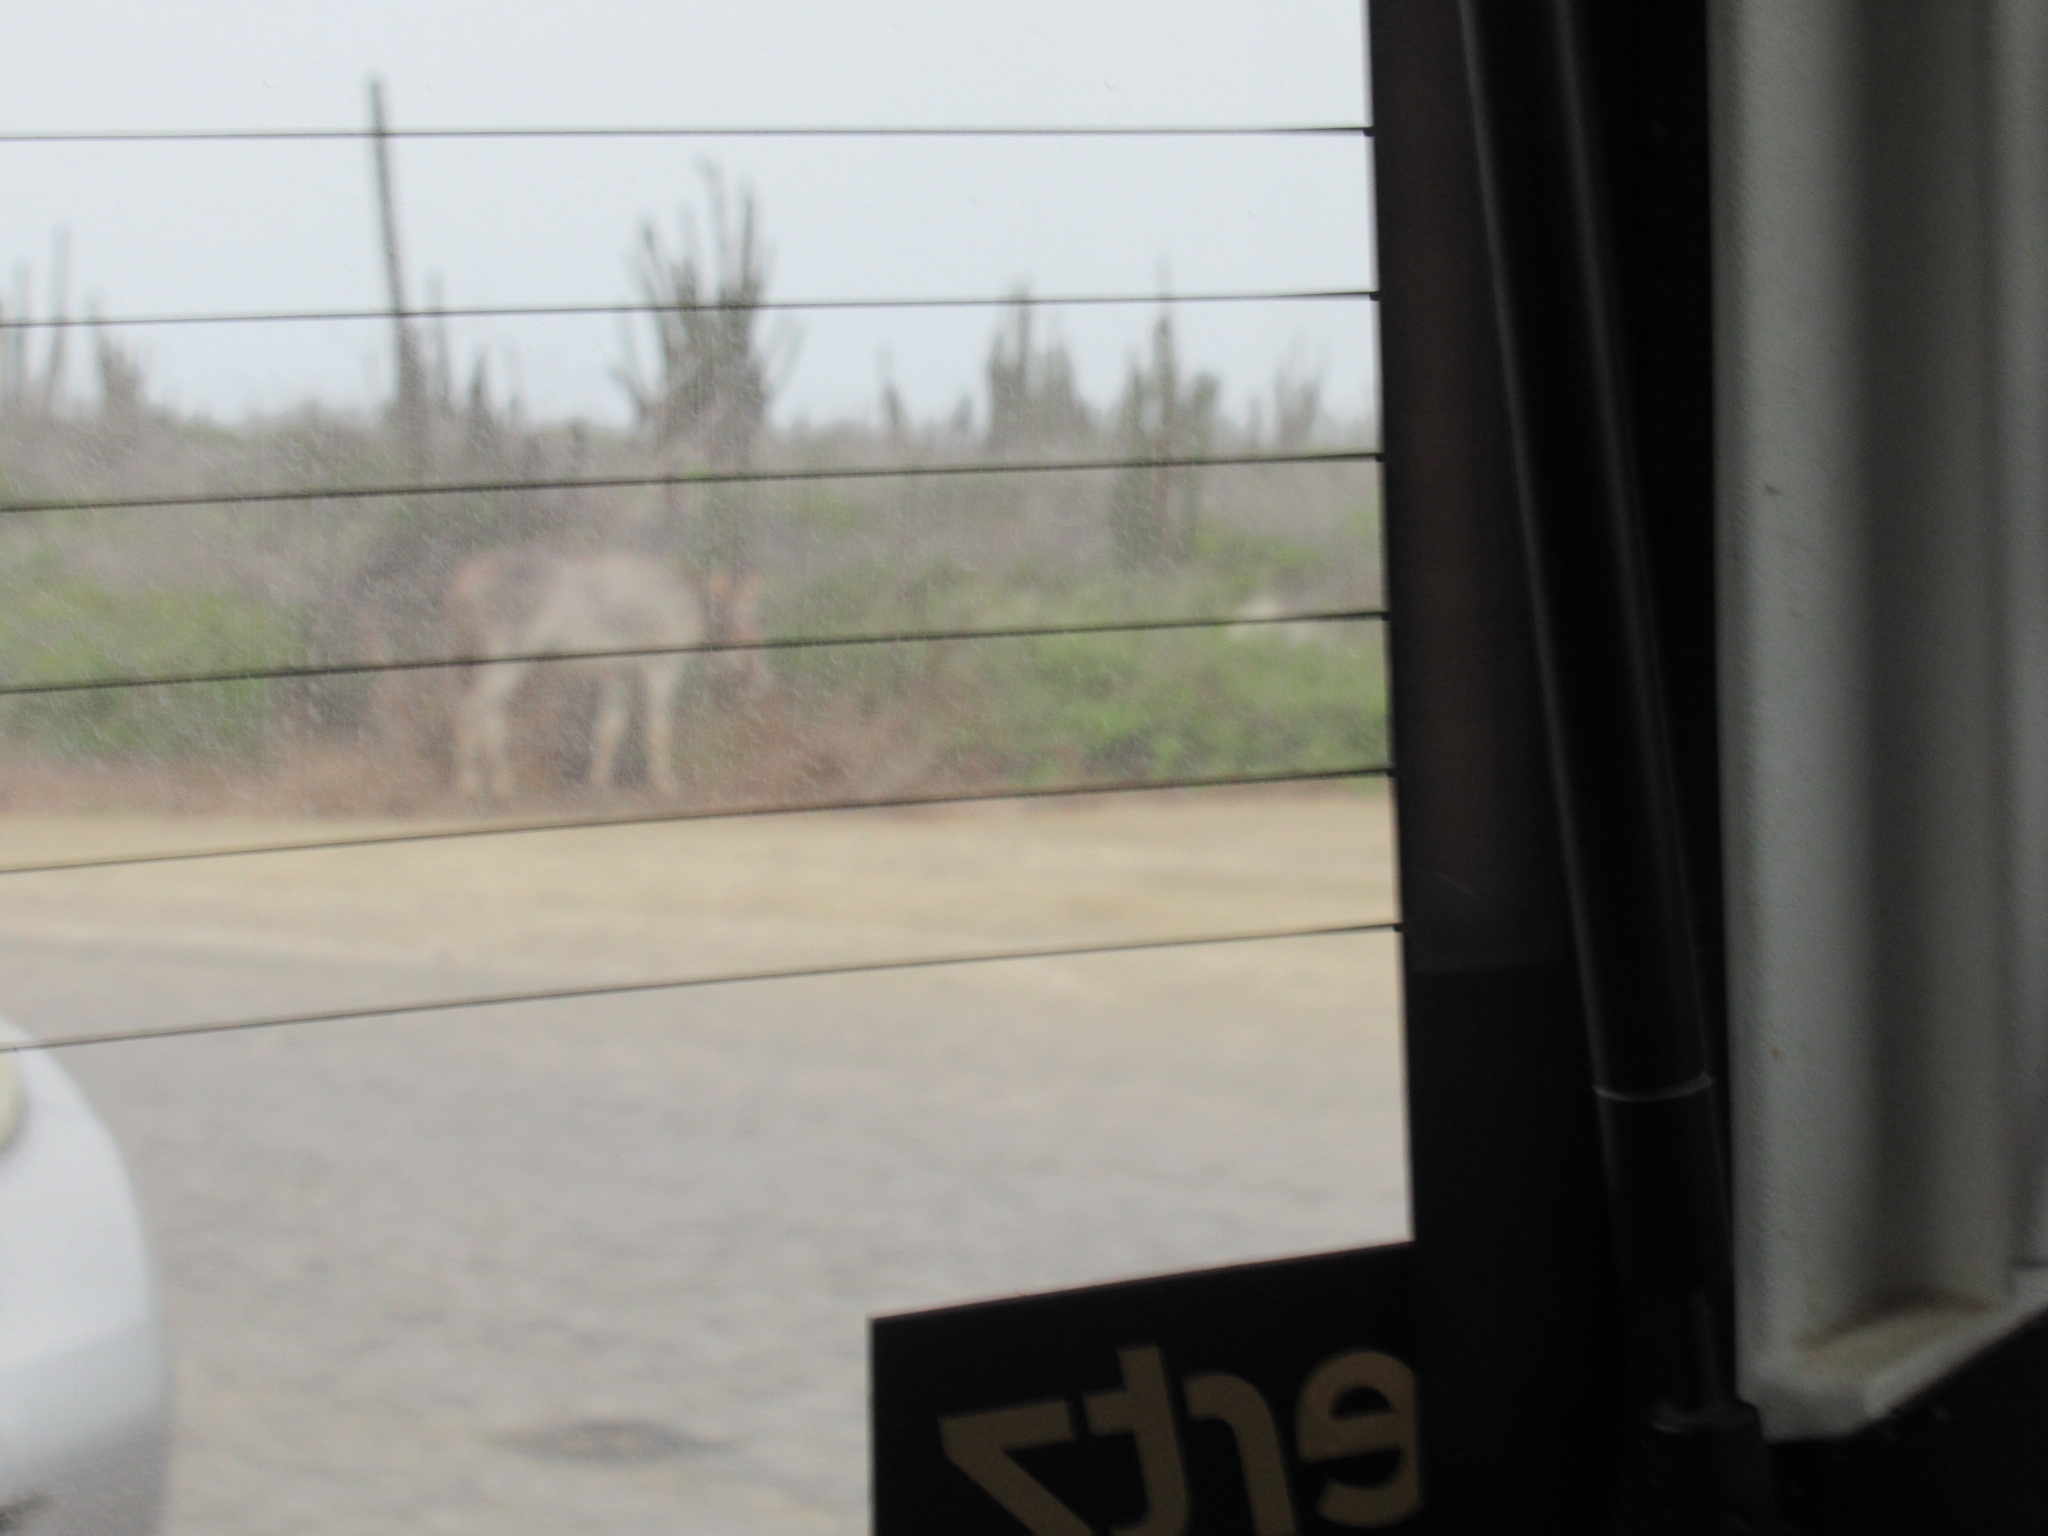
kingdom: Animalia
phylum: Chordata
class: Mammalia
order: Perissodactyla
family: Equidae
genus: Equus
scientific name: Equus asinus
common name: Ass
